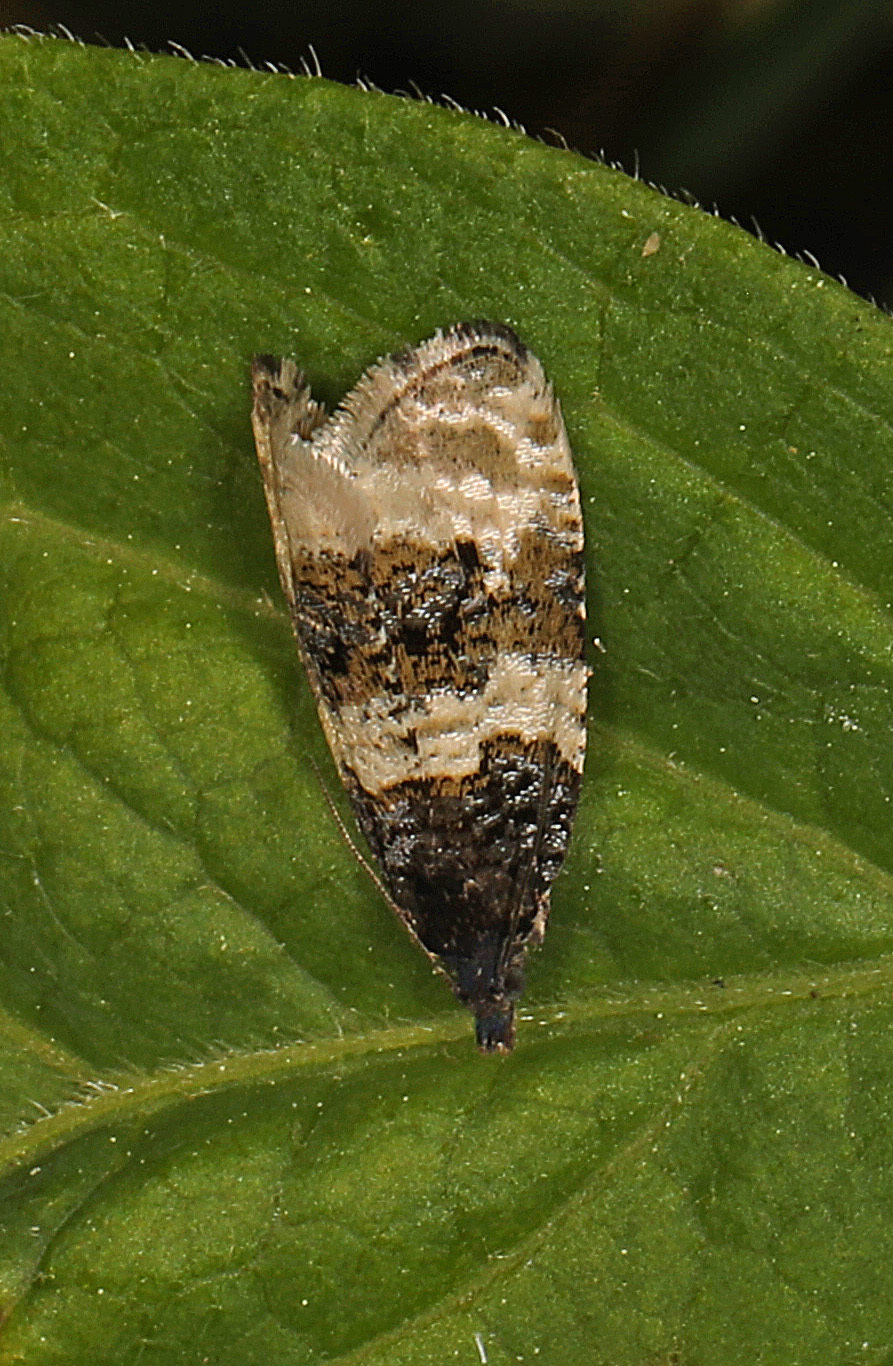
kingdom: Animalia
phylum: Arthropoda
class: Insecta
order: Lepidoptera
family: Tortricidae
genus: Olethreutes
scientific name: Olethreutes bipartitana
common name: Divided olethreutes moth
